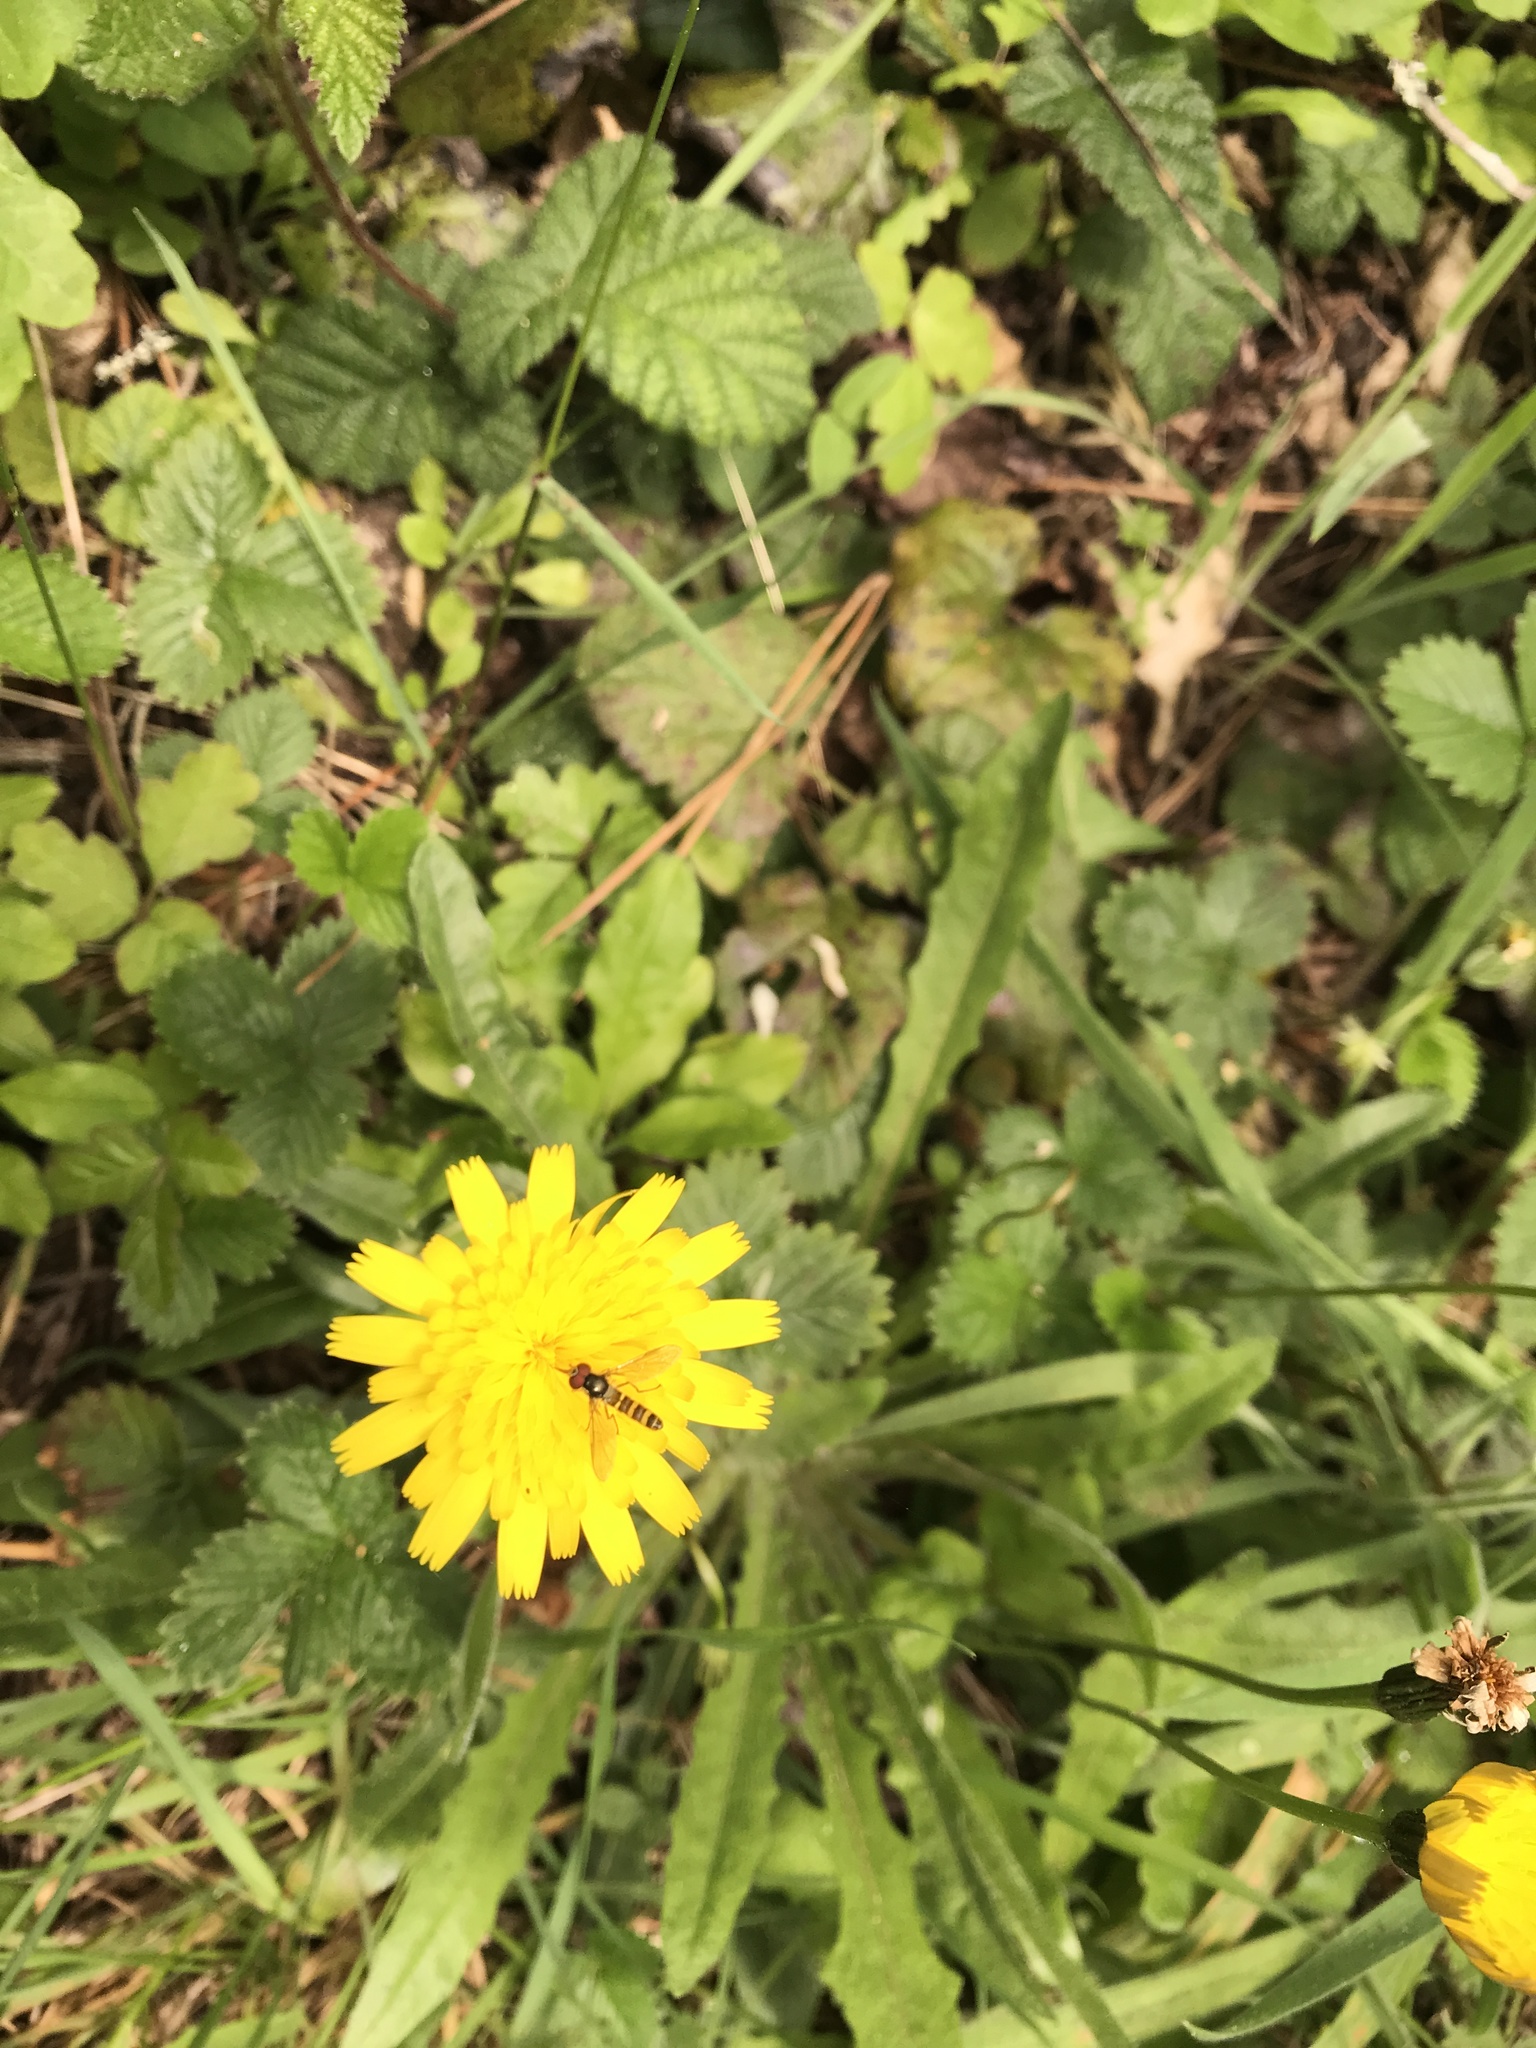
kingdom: Plantae
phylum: Tracheophyta
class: Magnoliopsida
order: Asterales
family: Asteraceae
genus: Hypochaeris
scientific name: Hypochaeris radicata
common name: Flatweed
